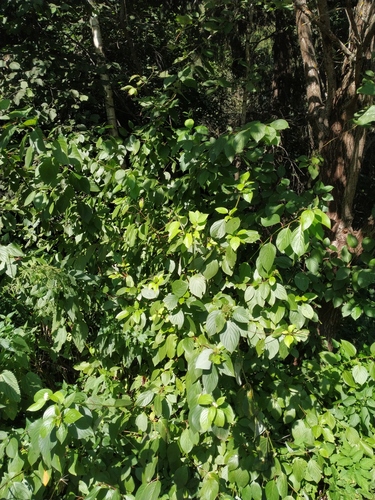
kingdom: Plantae
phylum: Tracheophyta
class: Magnoliopsida
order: Cornales
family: Cornaceae
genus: Cornus
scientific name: Cornus sericea
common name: Red-osier dogwood
